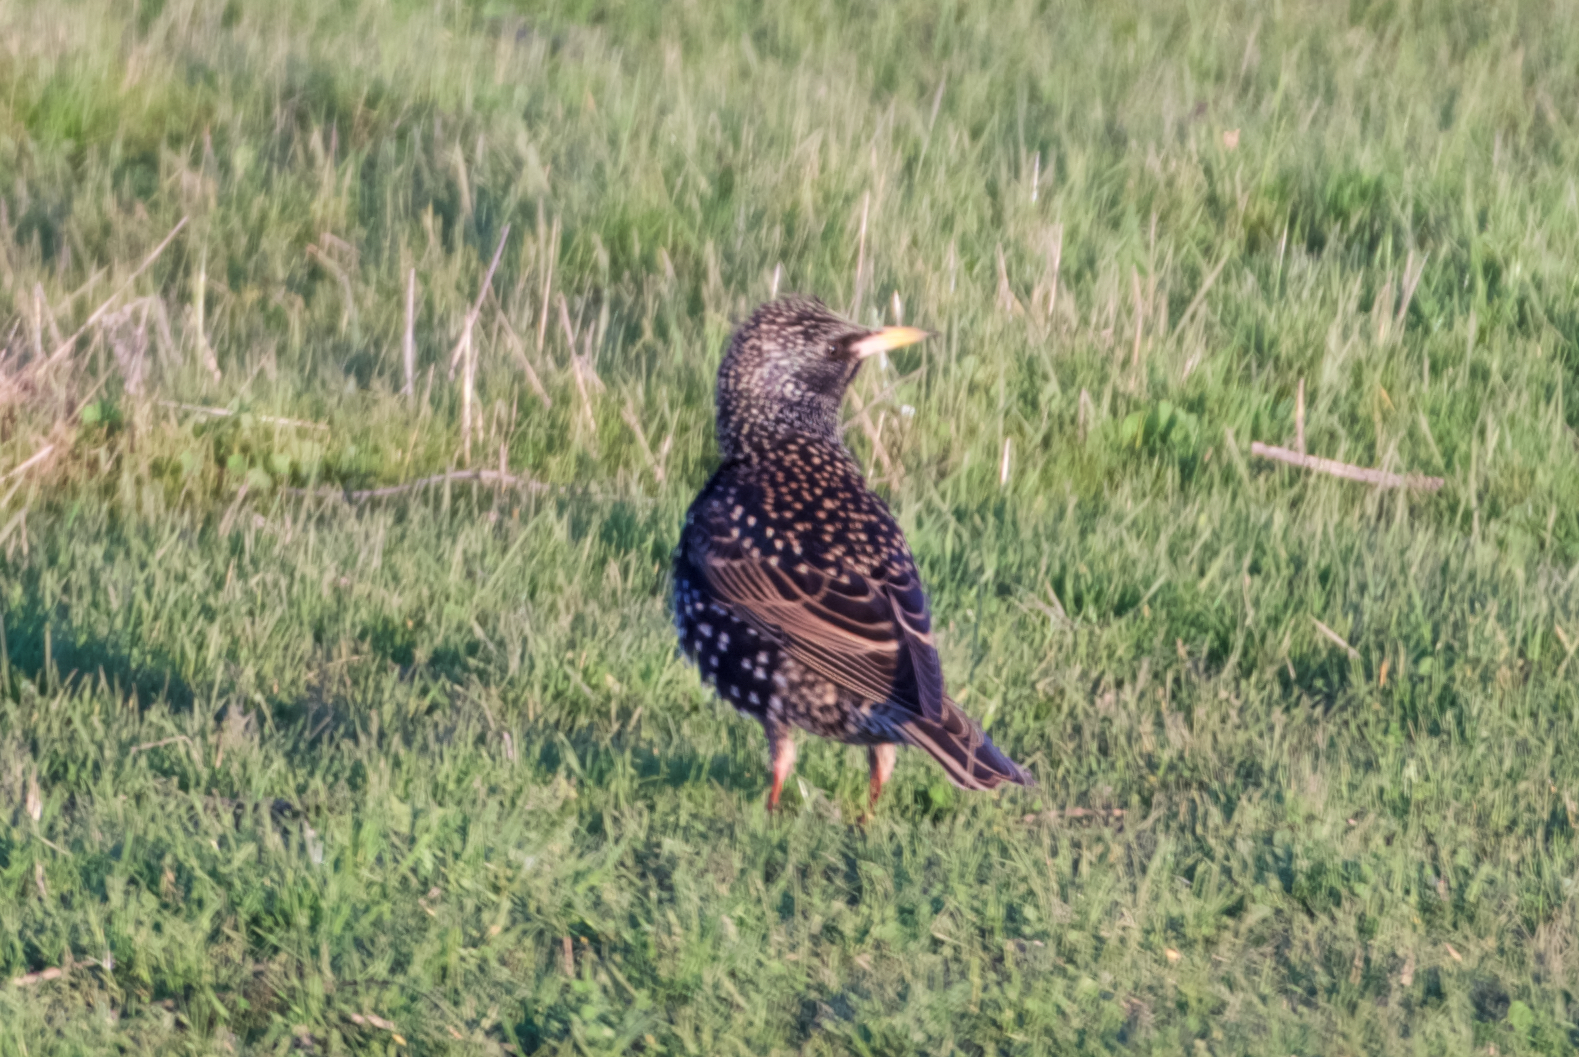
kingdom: Animalia
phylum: Chordata
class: Aves
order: Passeriformes
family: Sturnidae
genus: Sturnus
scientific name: Sturnus vulgaris
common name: Common starling
